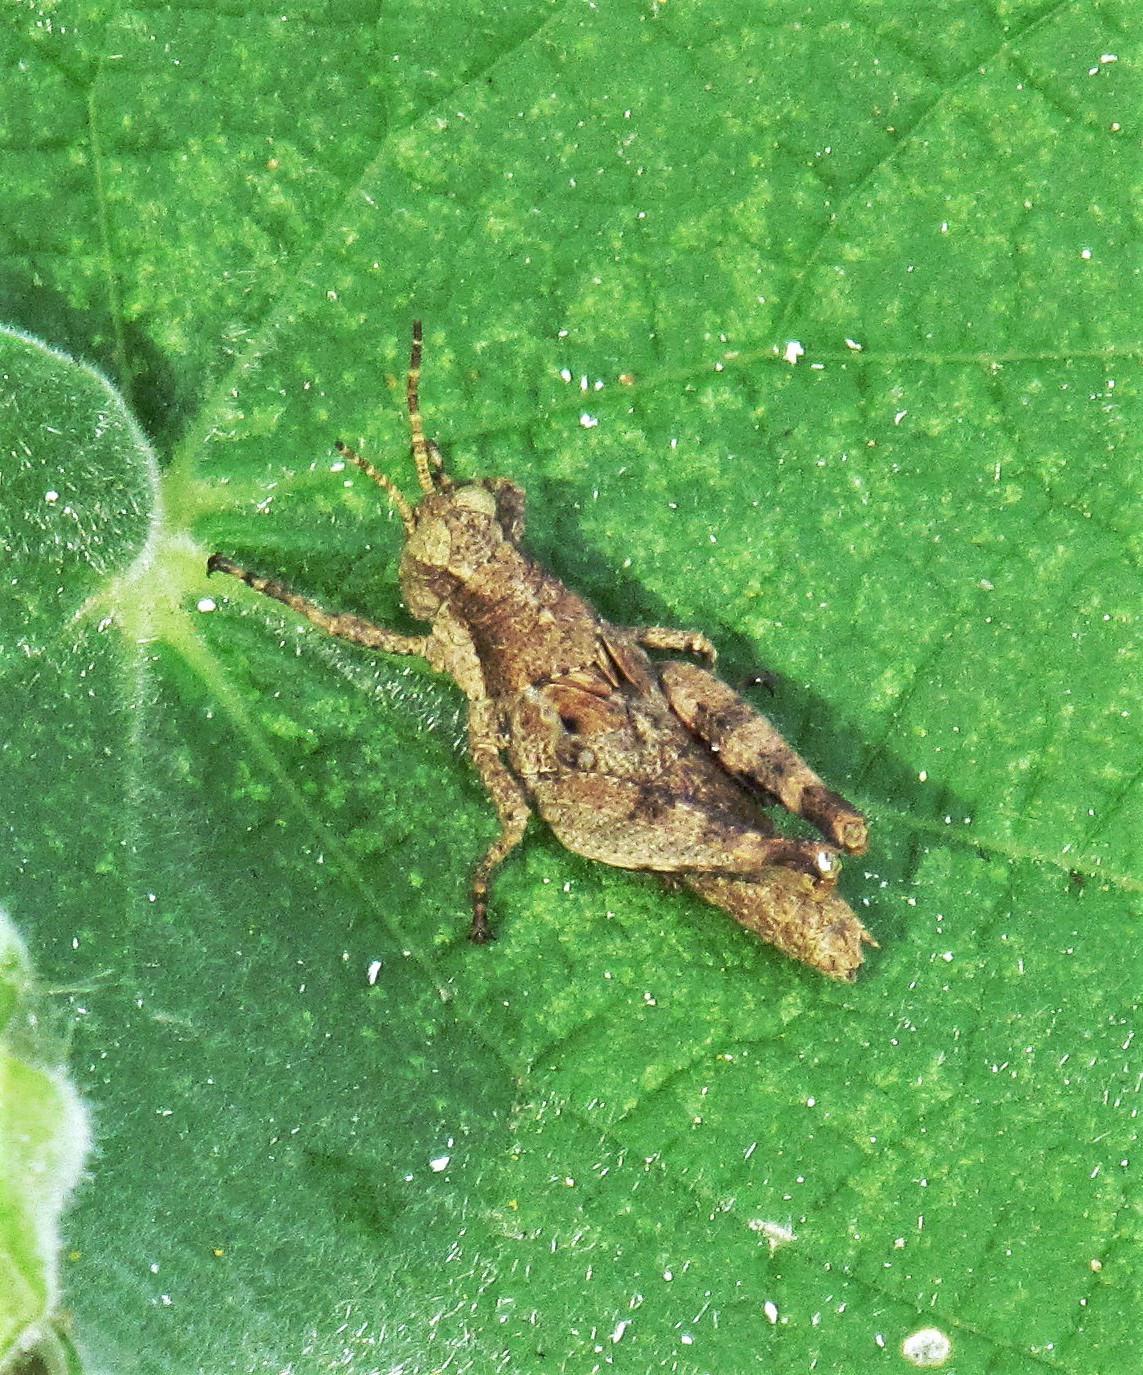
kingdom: Animalia
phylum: Arthropoda
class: Insecta
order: Orthoptera
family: Acrididae
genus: Ronderosia
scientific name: Ronderosia bergii
